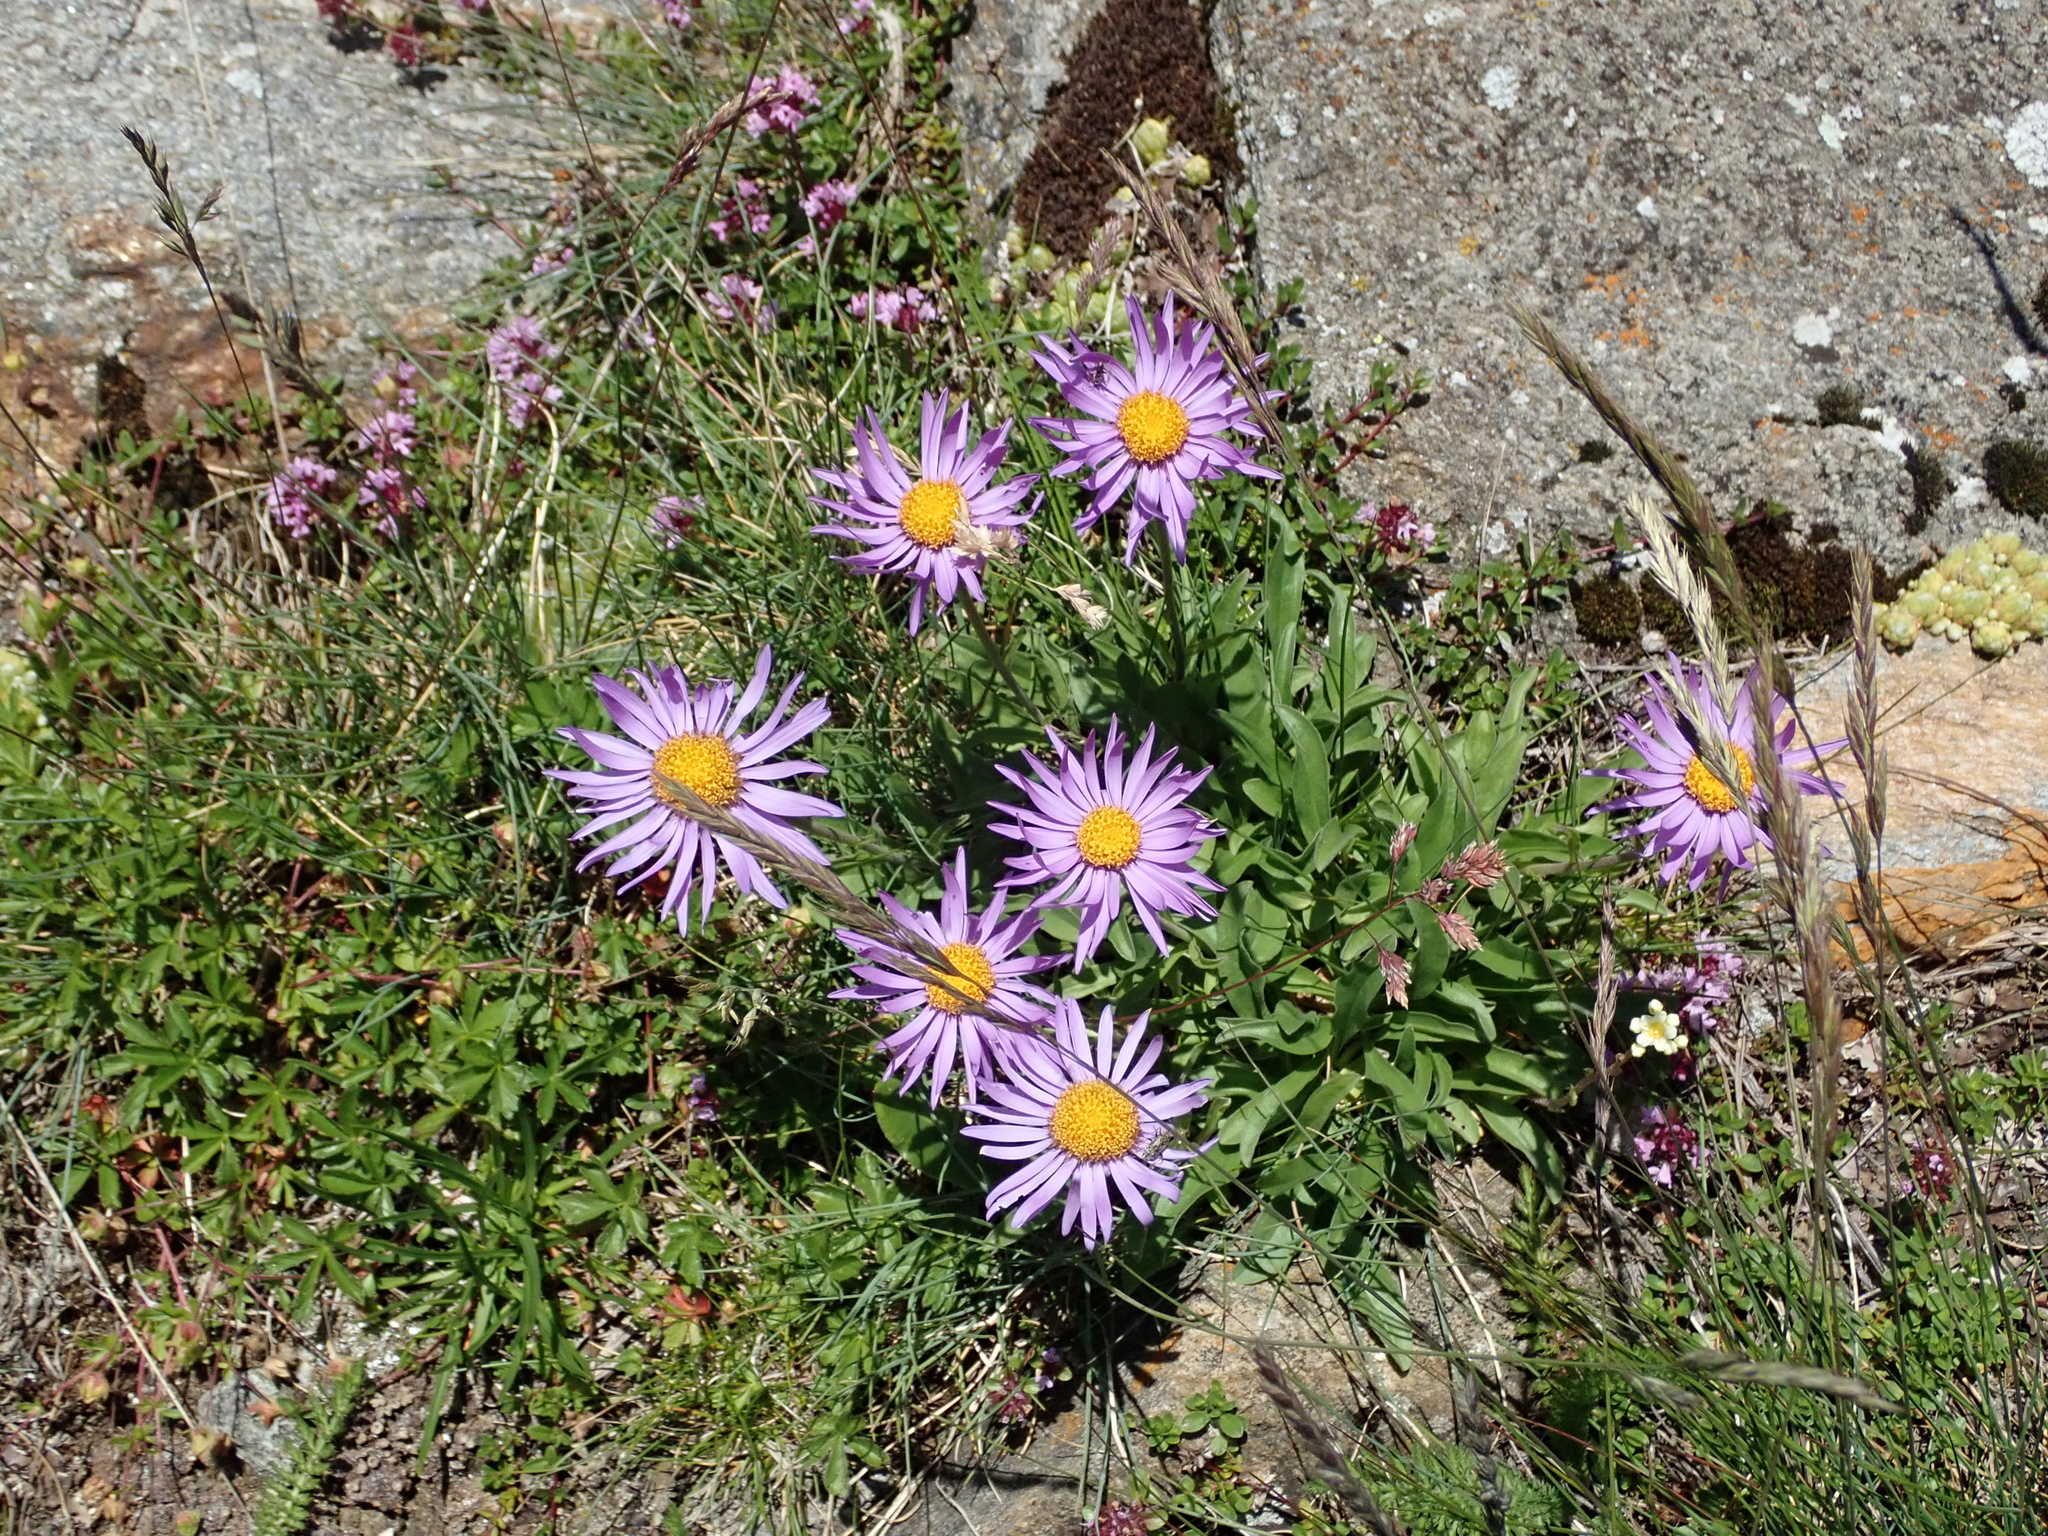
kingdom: Plantae
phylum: Tracheophyta
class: Magnoliopsida
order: Asterales
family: Asteraceae
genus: Aster
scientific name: Aster alpinus
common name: Alpine aster
